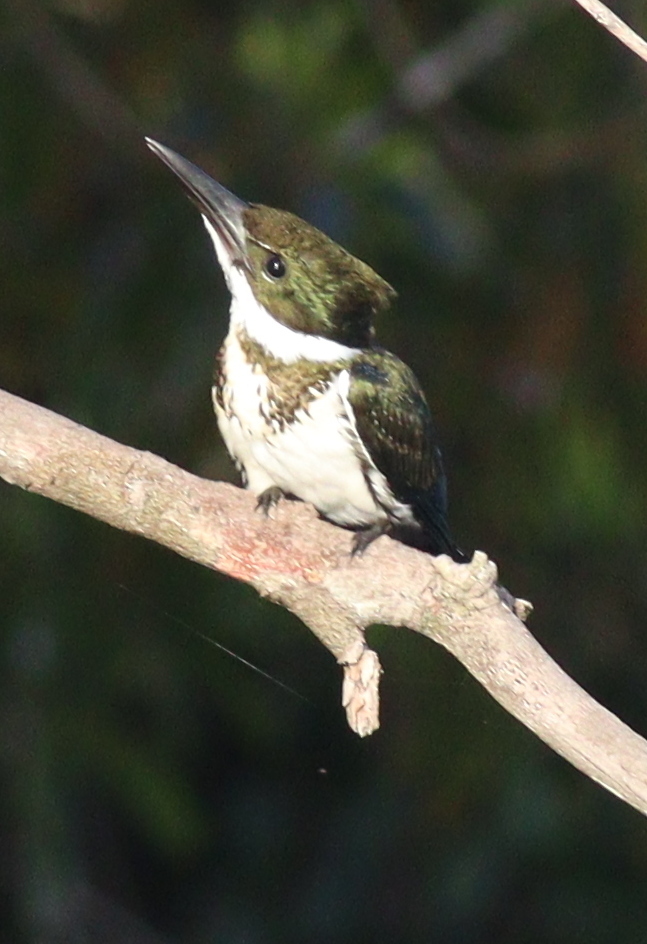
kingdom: Animalia
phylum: Chordata
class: Aves
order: Coraciiformes
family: Alcedinidae
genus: Chloroceryle
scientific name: Chloroceryle amazona
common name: Amazon kingfisher
